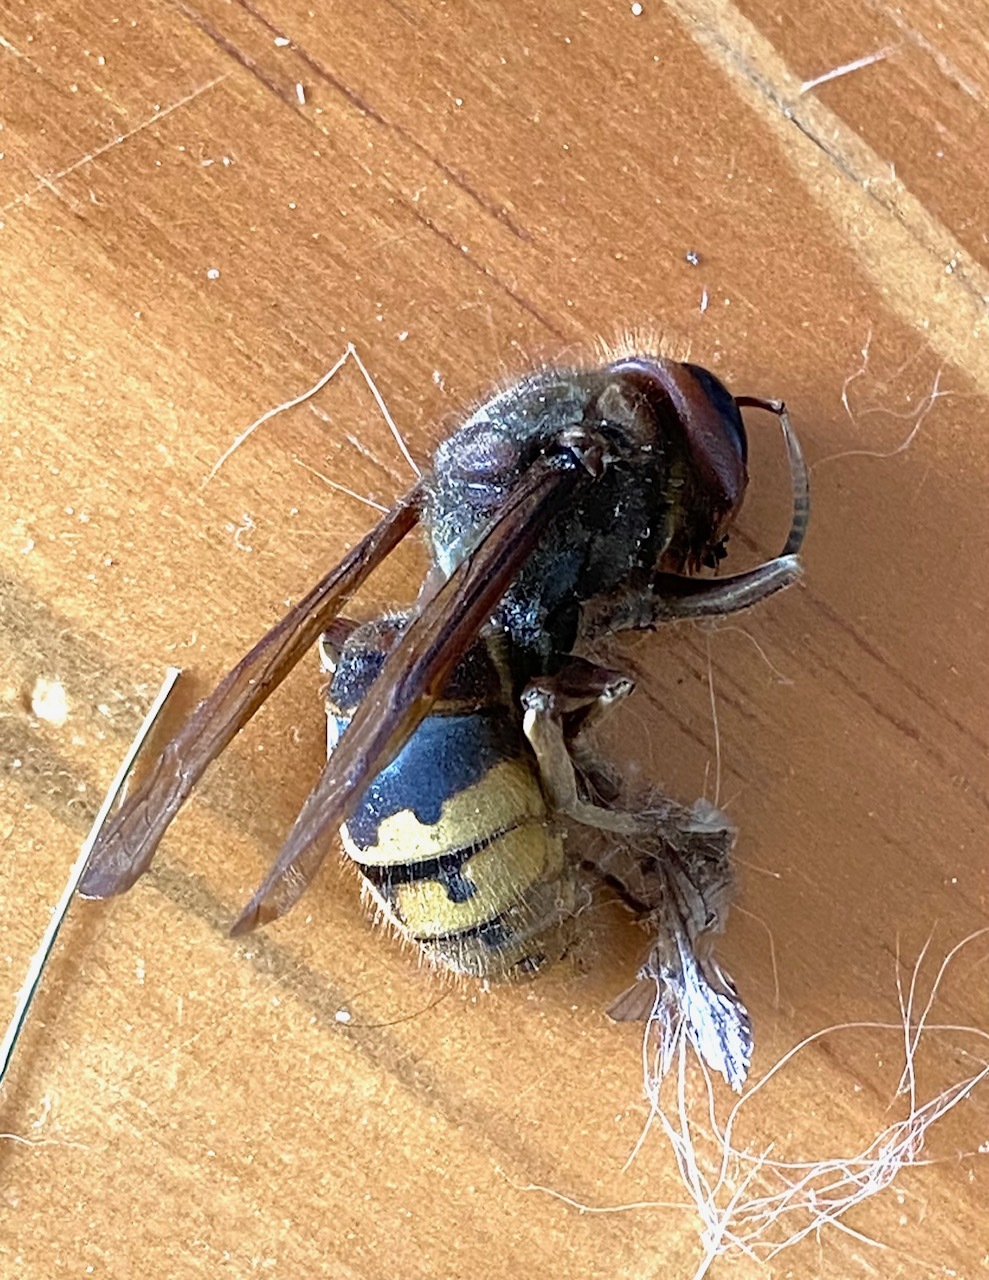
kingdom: Animalia
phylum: Arthropoda
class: Insecta
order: Hymenoptera
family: Vespidae
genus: Vespa
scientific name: Vespa crabro
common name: Hornet
